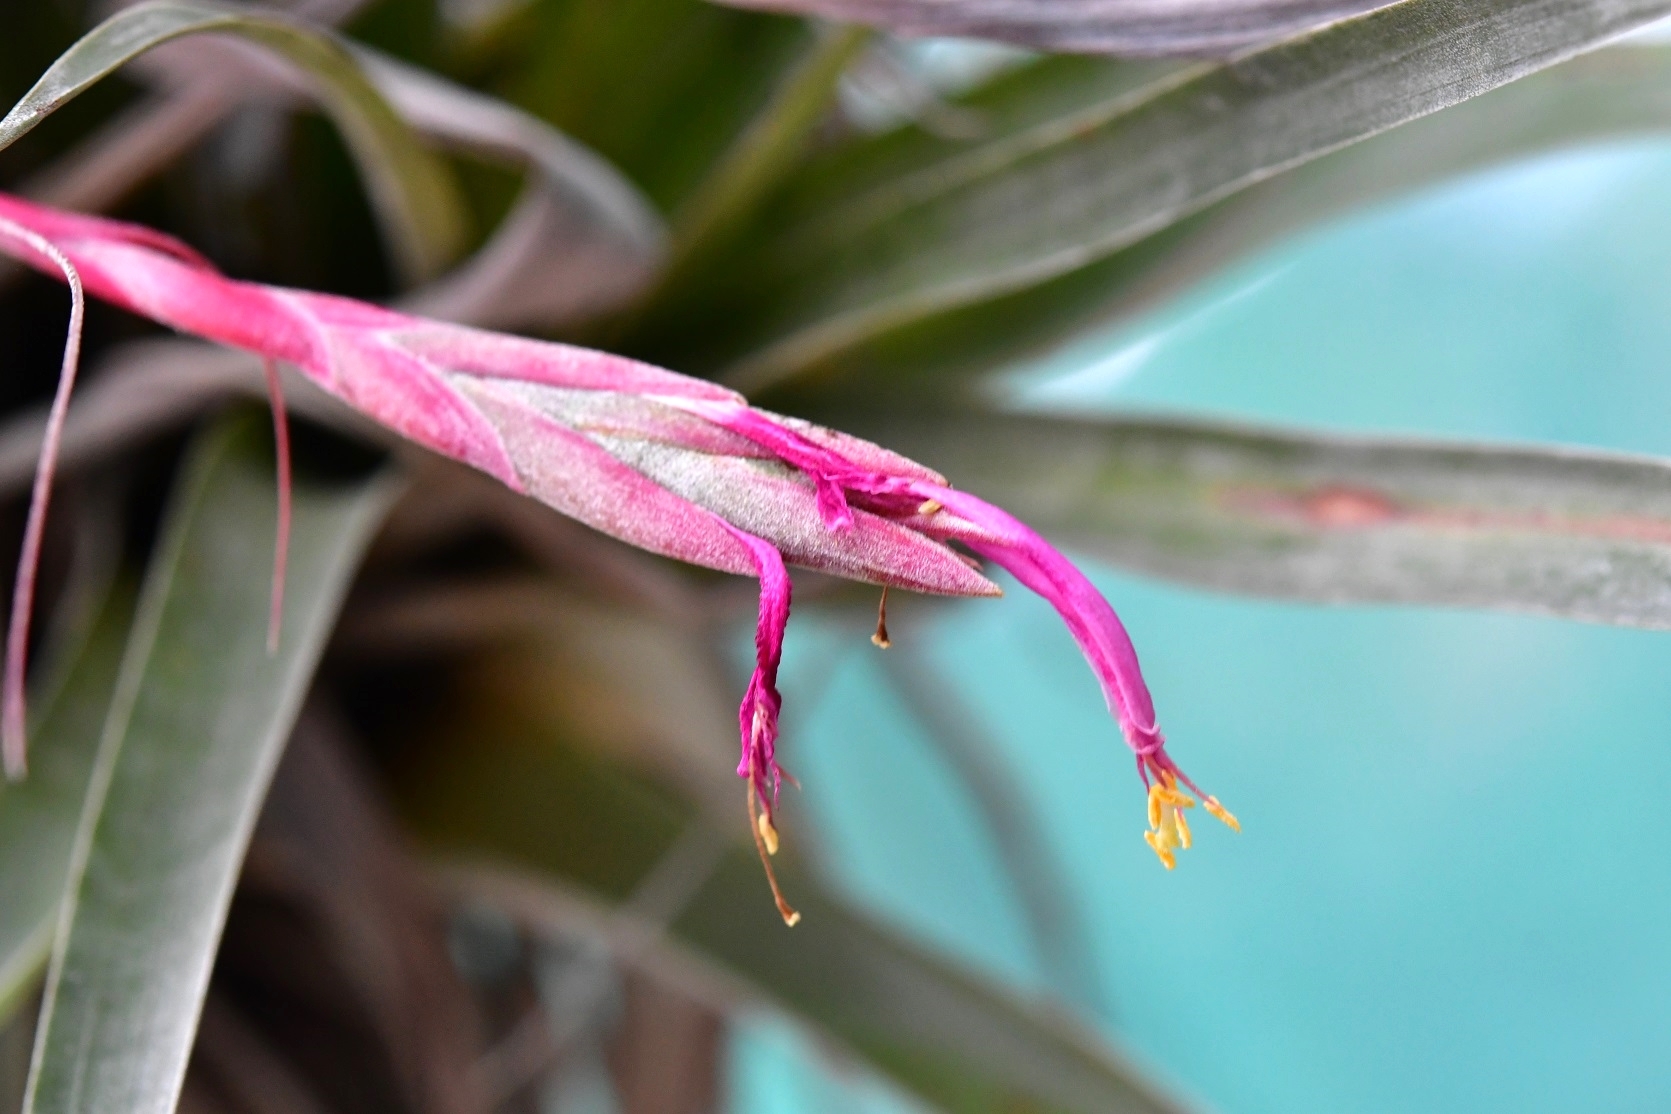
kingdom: Plantae
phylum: Tracheophyta
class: Liliopsida
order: Poales
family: Bromeliaceae
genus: Tillandsia
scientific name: Tillandsia butzii
